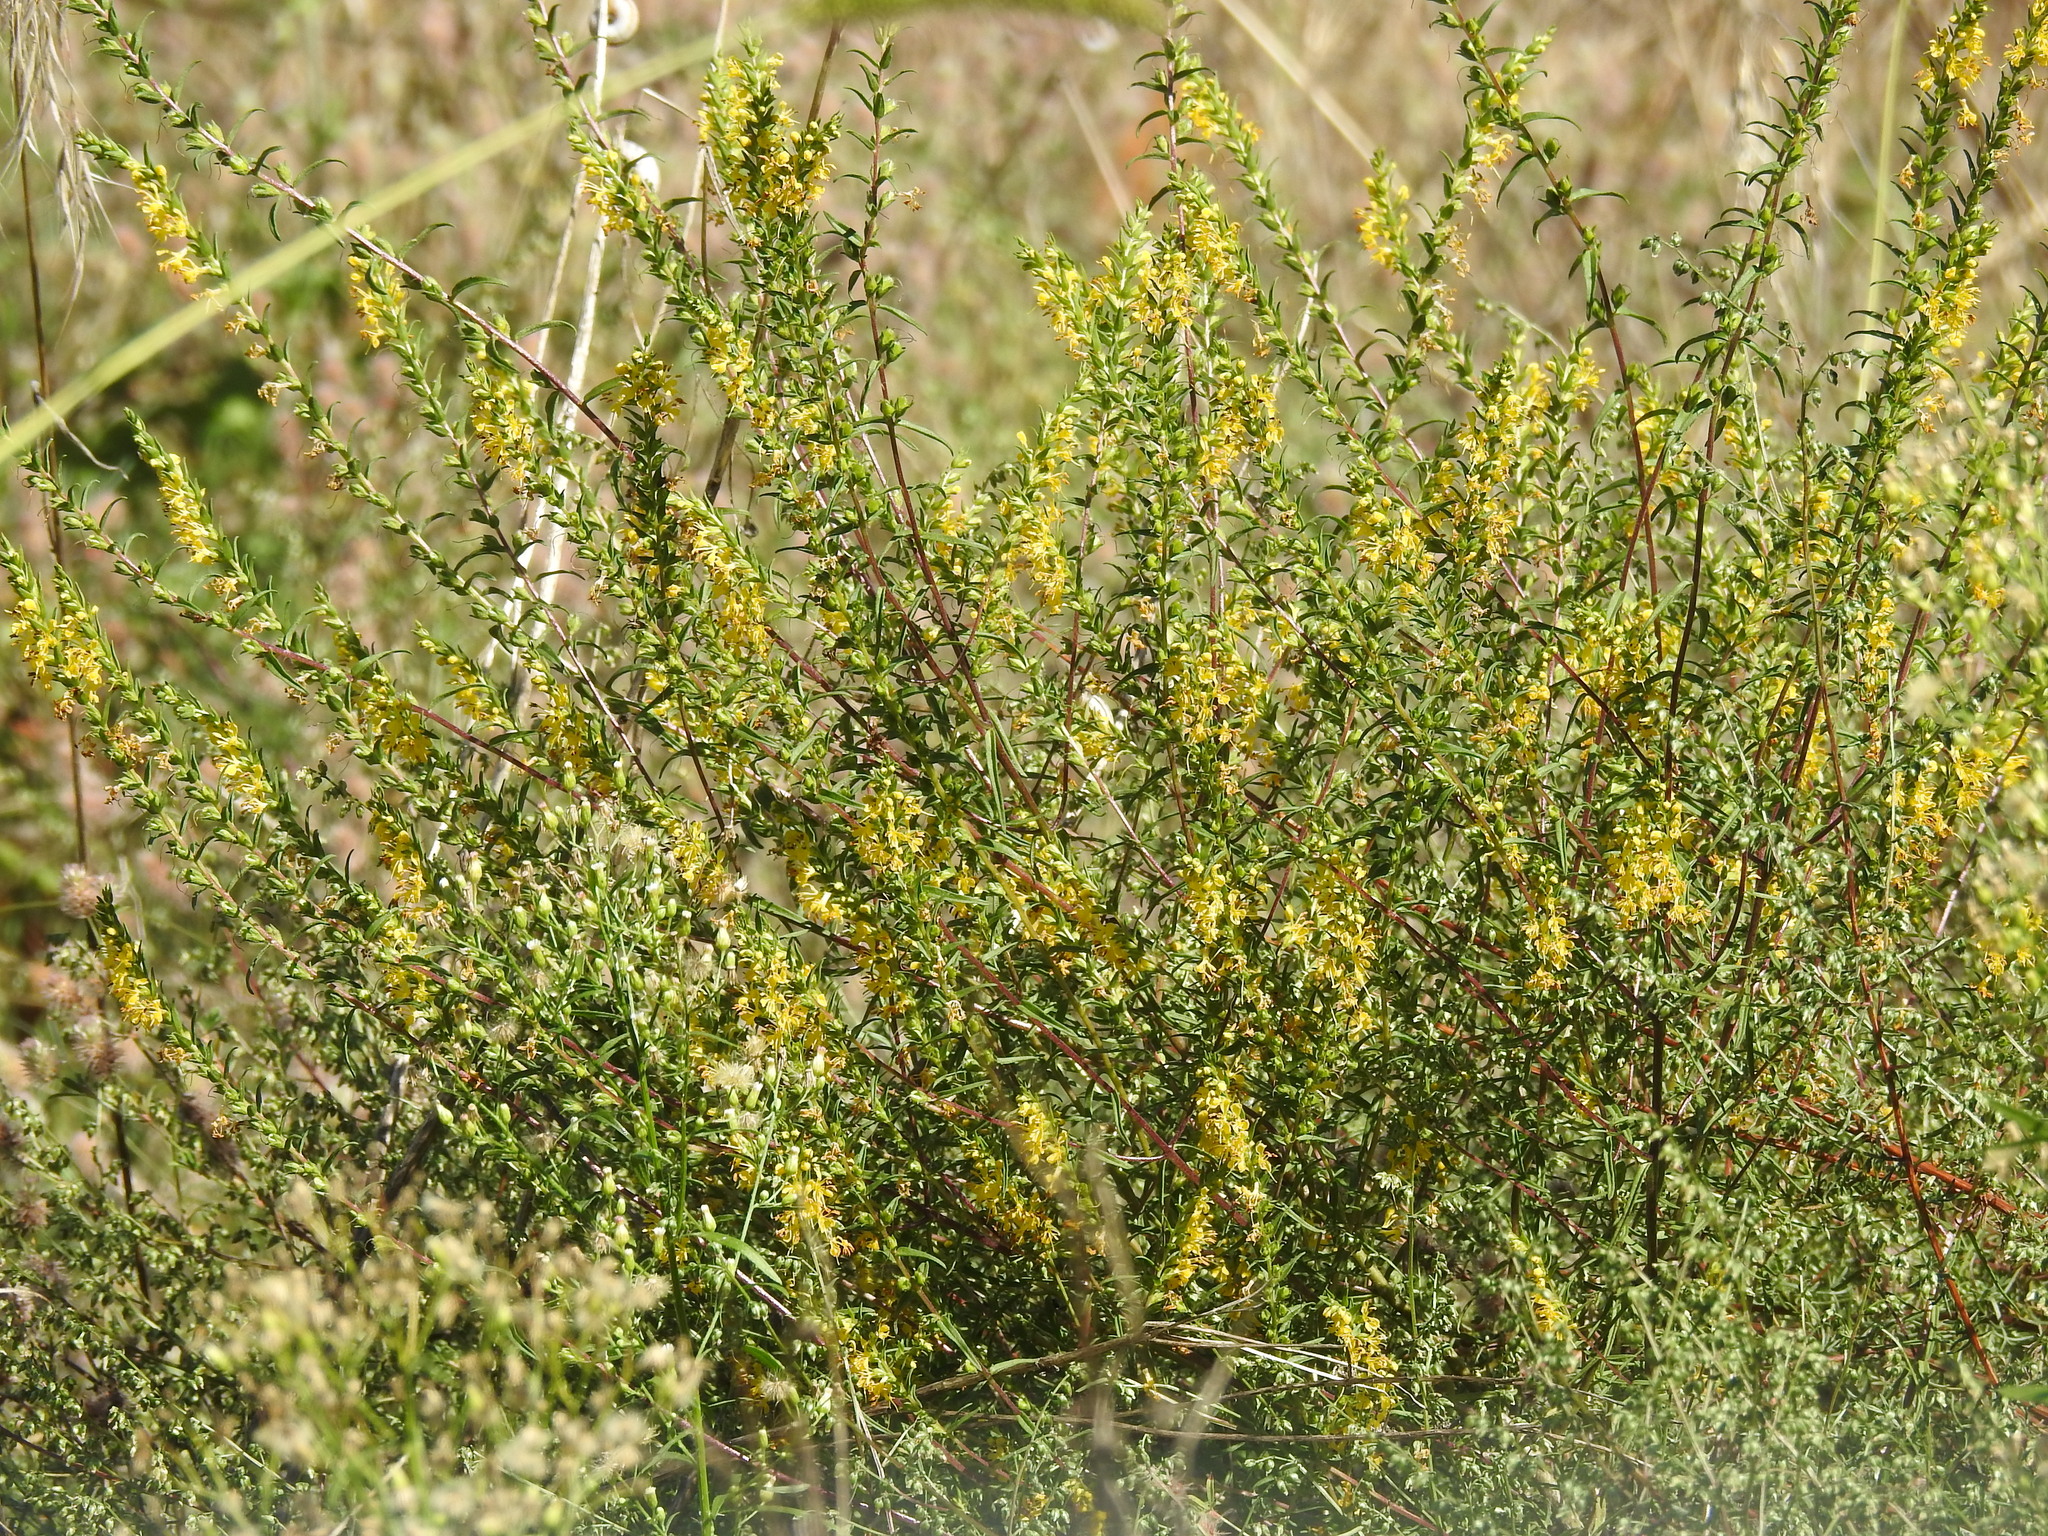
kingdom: Plantae
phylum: Tracheophyta
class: Magnoliopsida
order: Lamiales
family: Orobanchaceae
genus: Odontites
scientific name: Odontites luteus
